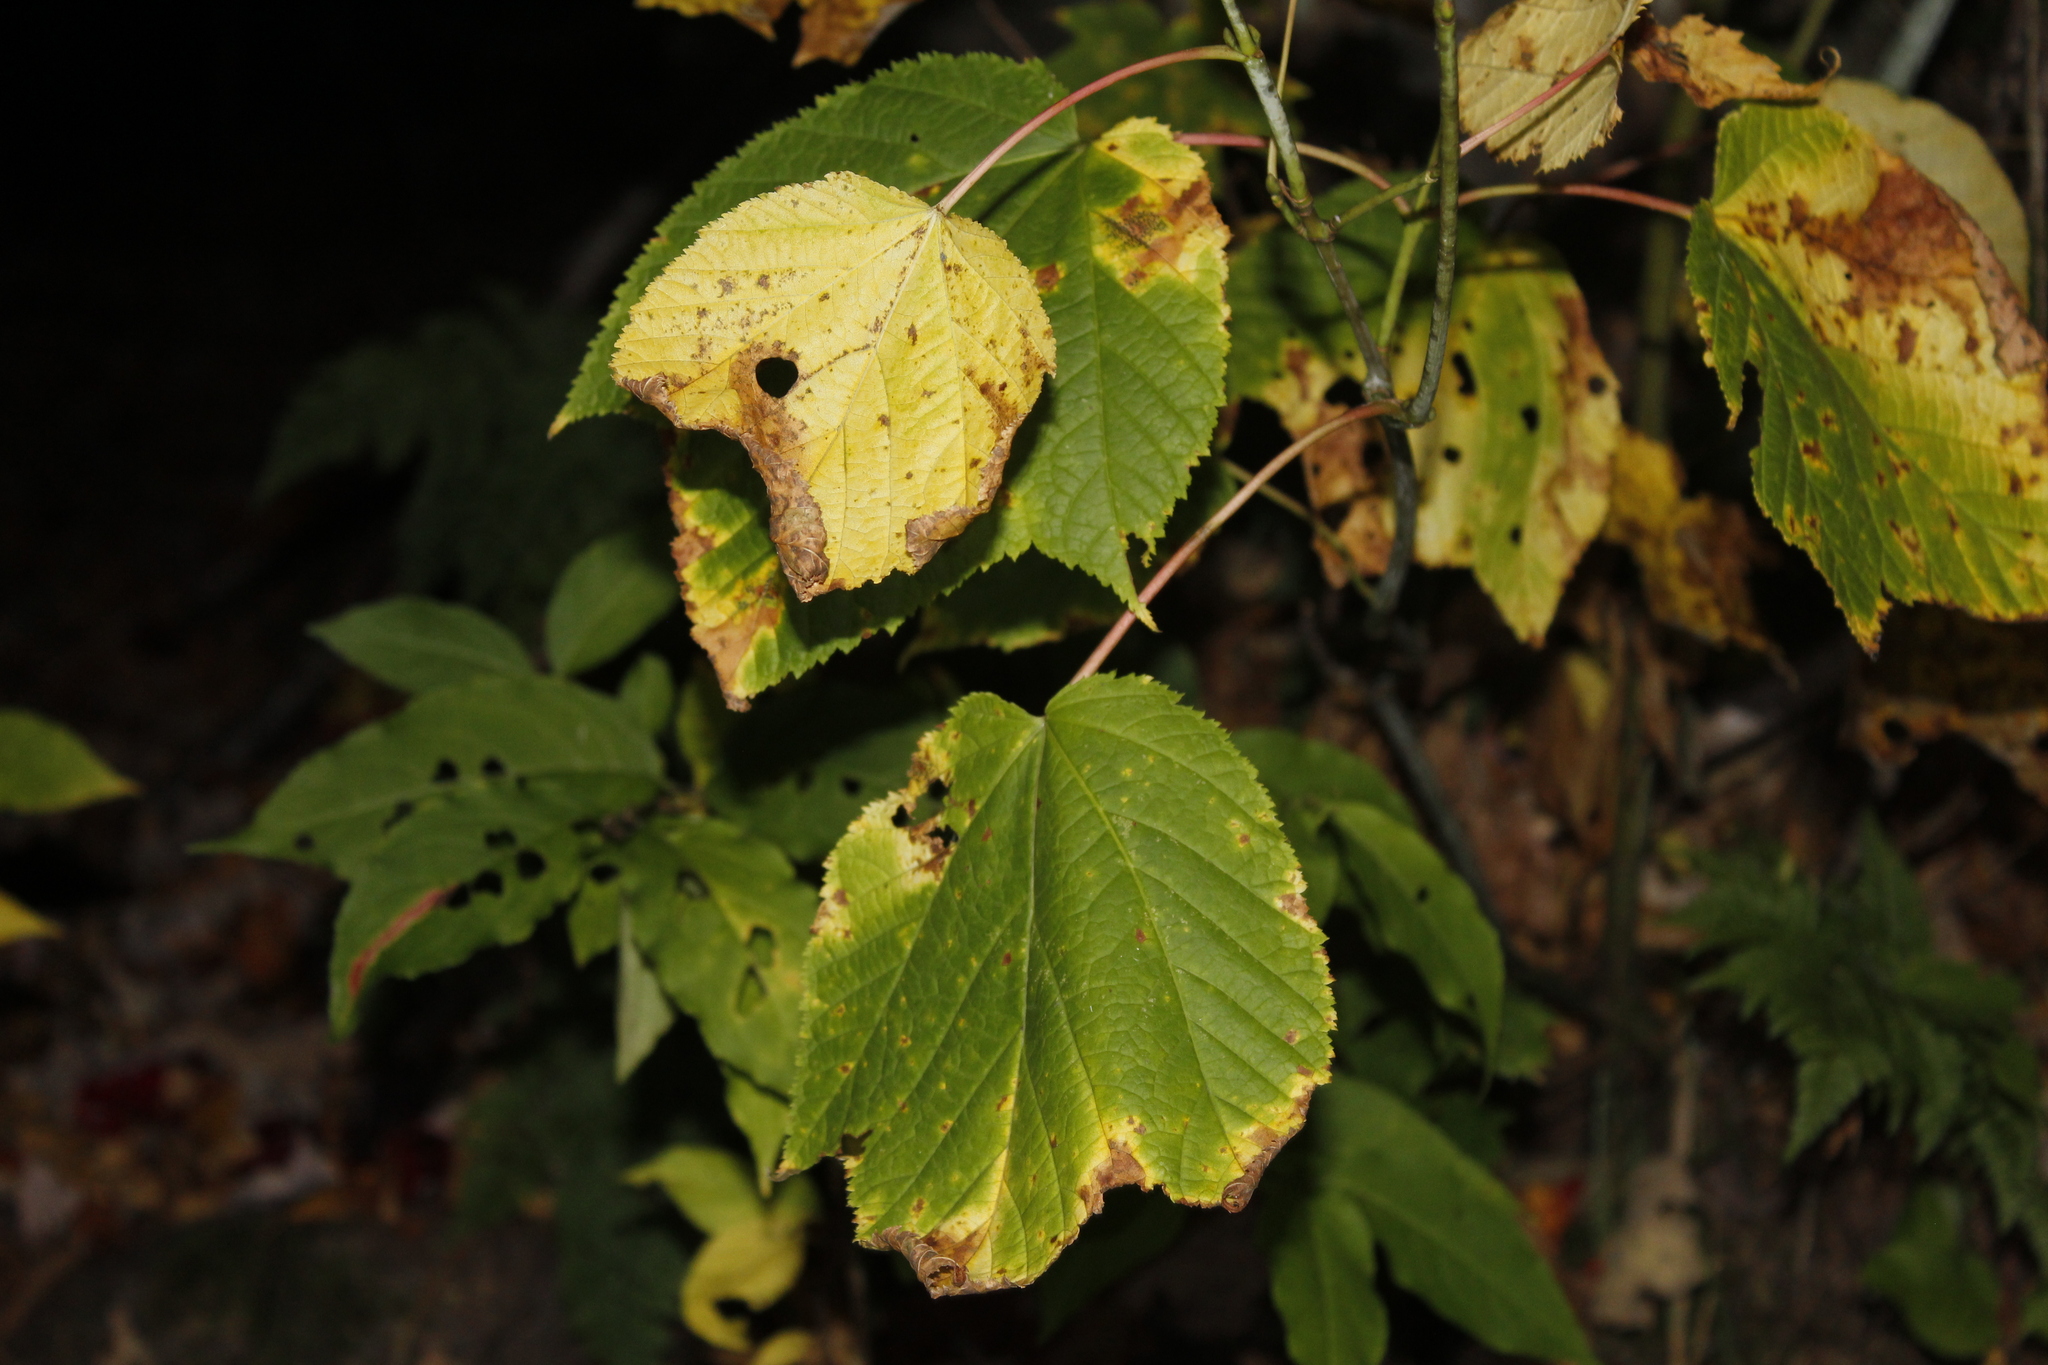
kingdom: Plantae
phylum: Tracheophyta
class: Magnoliopsida
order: Sapindales
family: Sapindaceae
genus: Acer
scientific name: Acer pensylvanicum
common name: Moosewood
